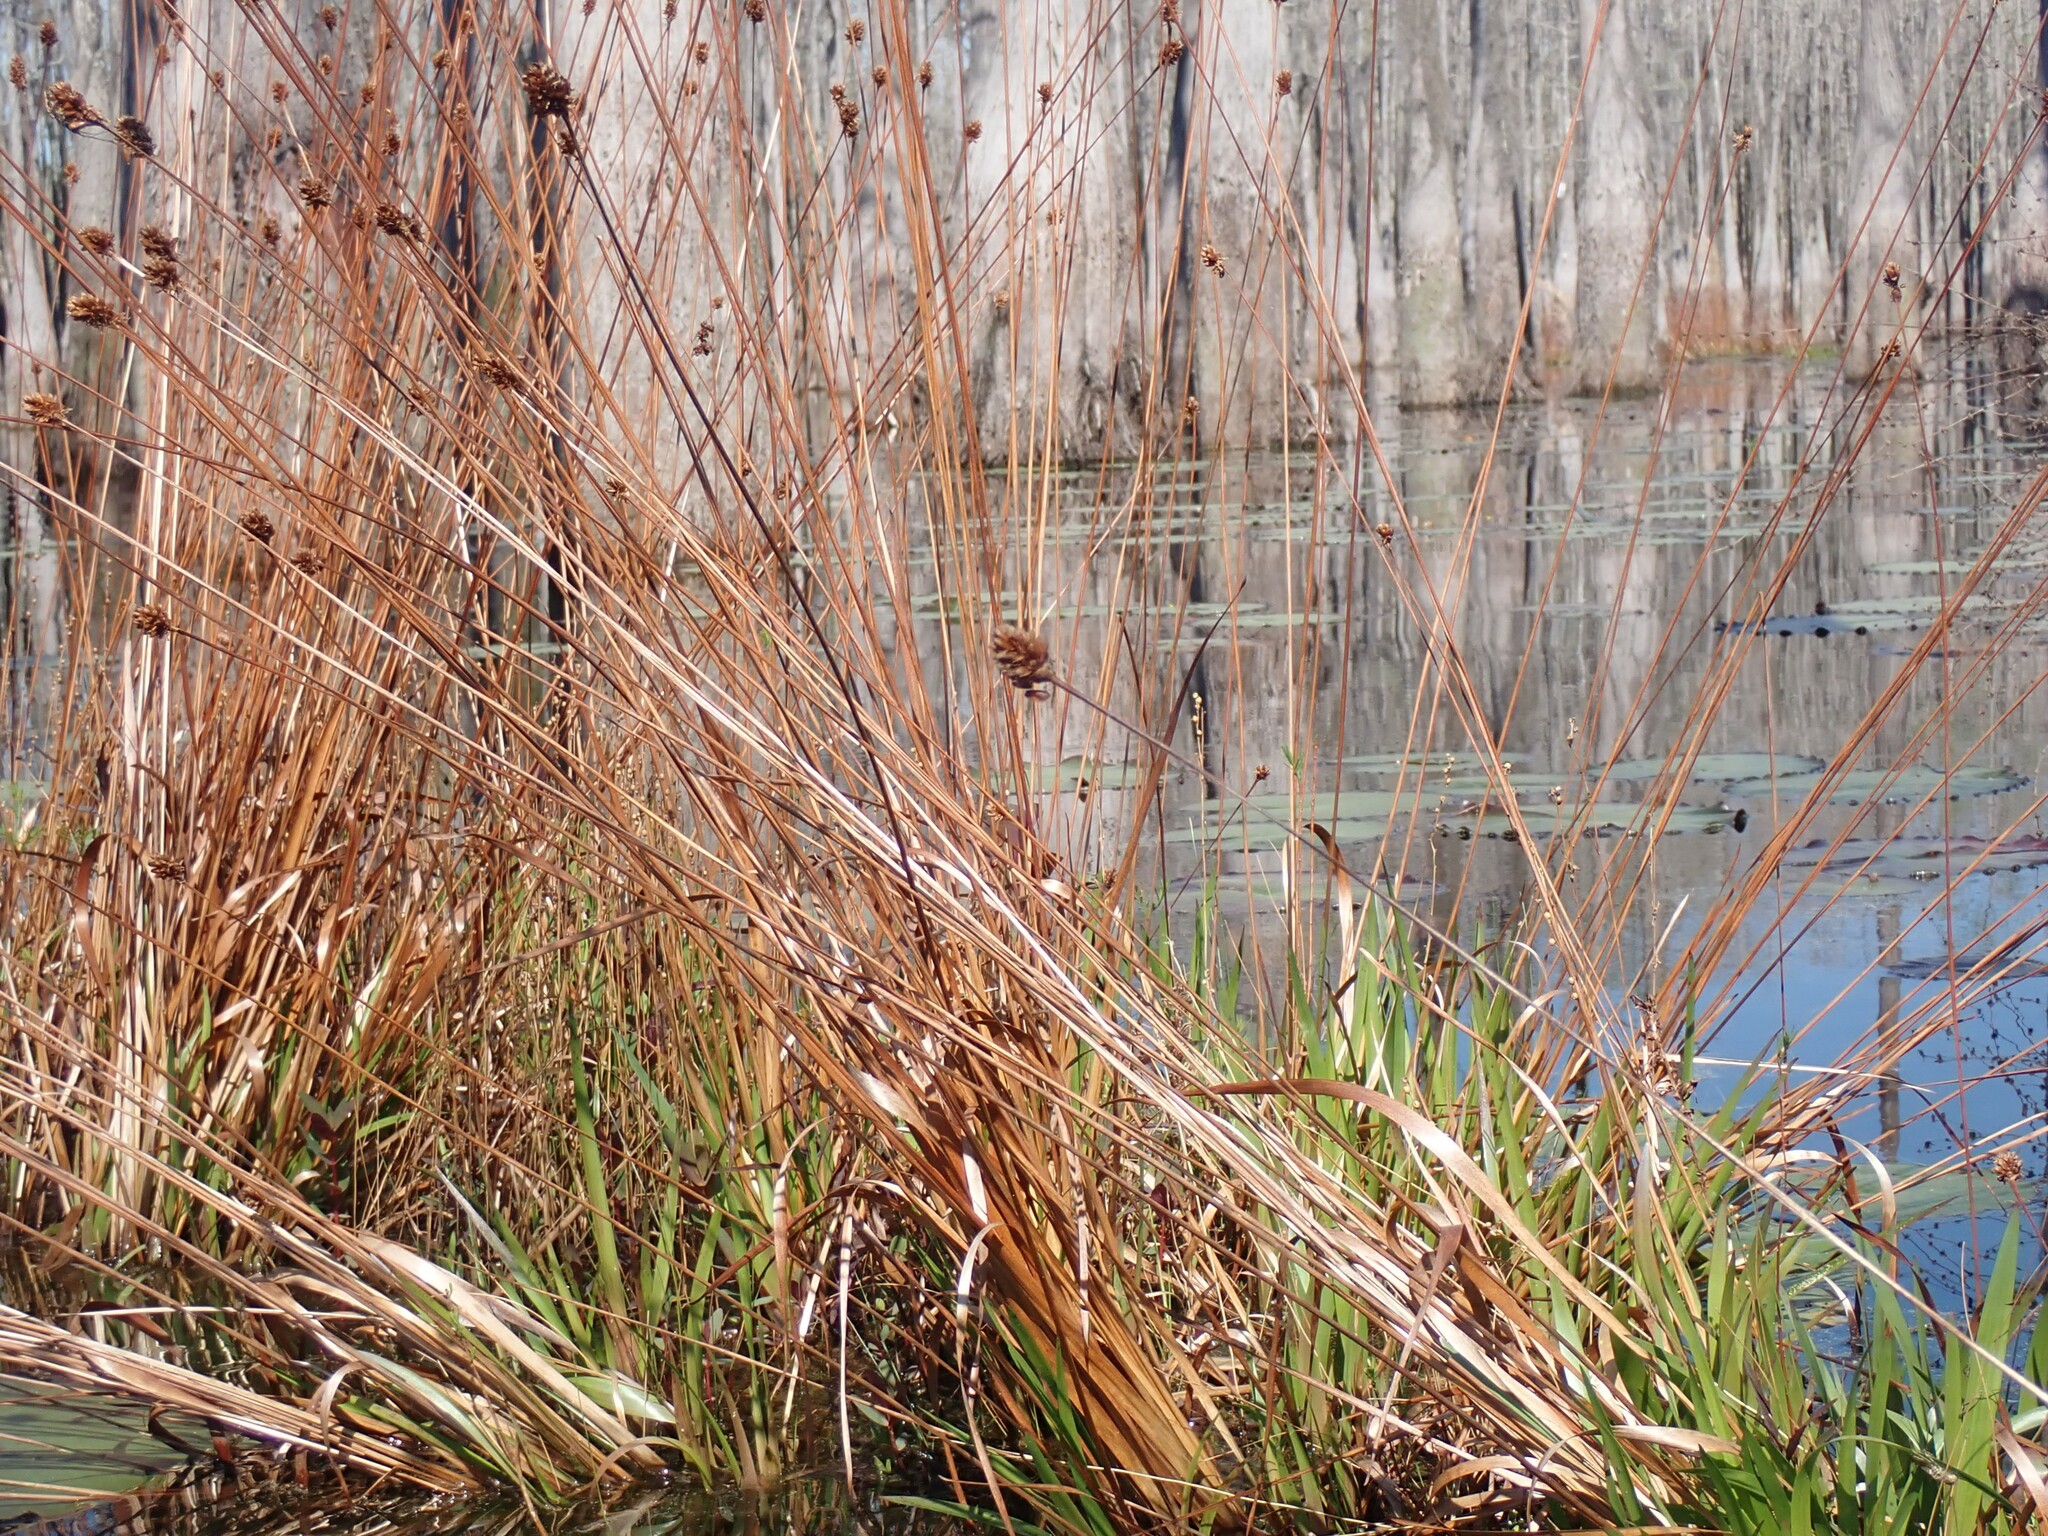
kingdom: Plantae
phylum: Tracheophyta
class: Liliopsida
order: Poales
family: Xyridaceae
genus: Xyris
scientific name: Xyris fimbriata
